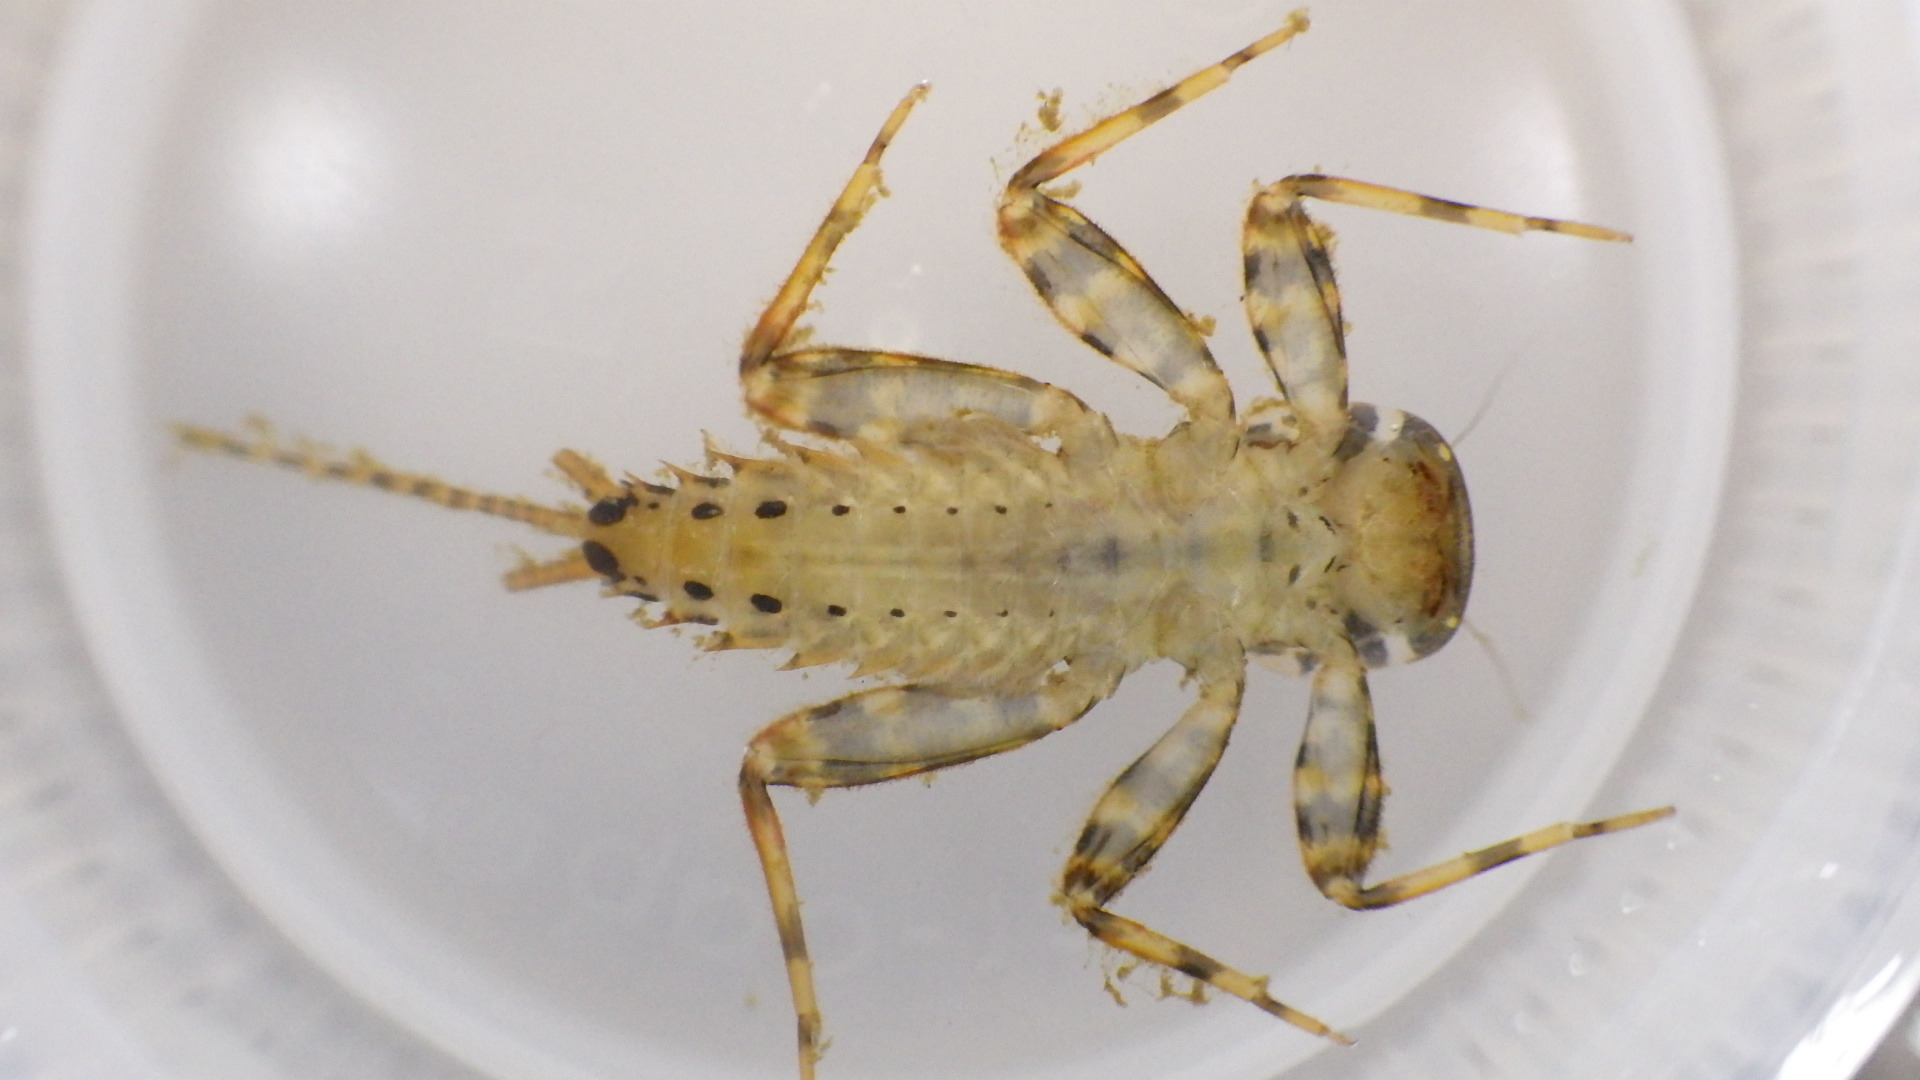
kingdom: Animalia
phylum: Arthropoda
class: Insecta
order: Ephemeroptera
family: Heptageniidae
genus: Stenonema
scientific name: Stenonema femoratum
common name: Dark cahill
